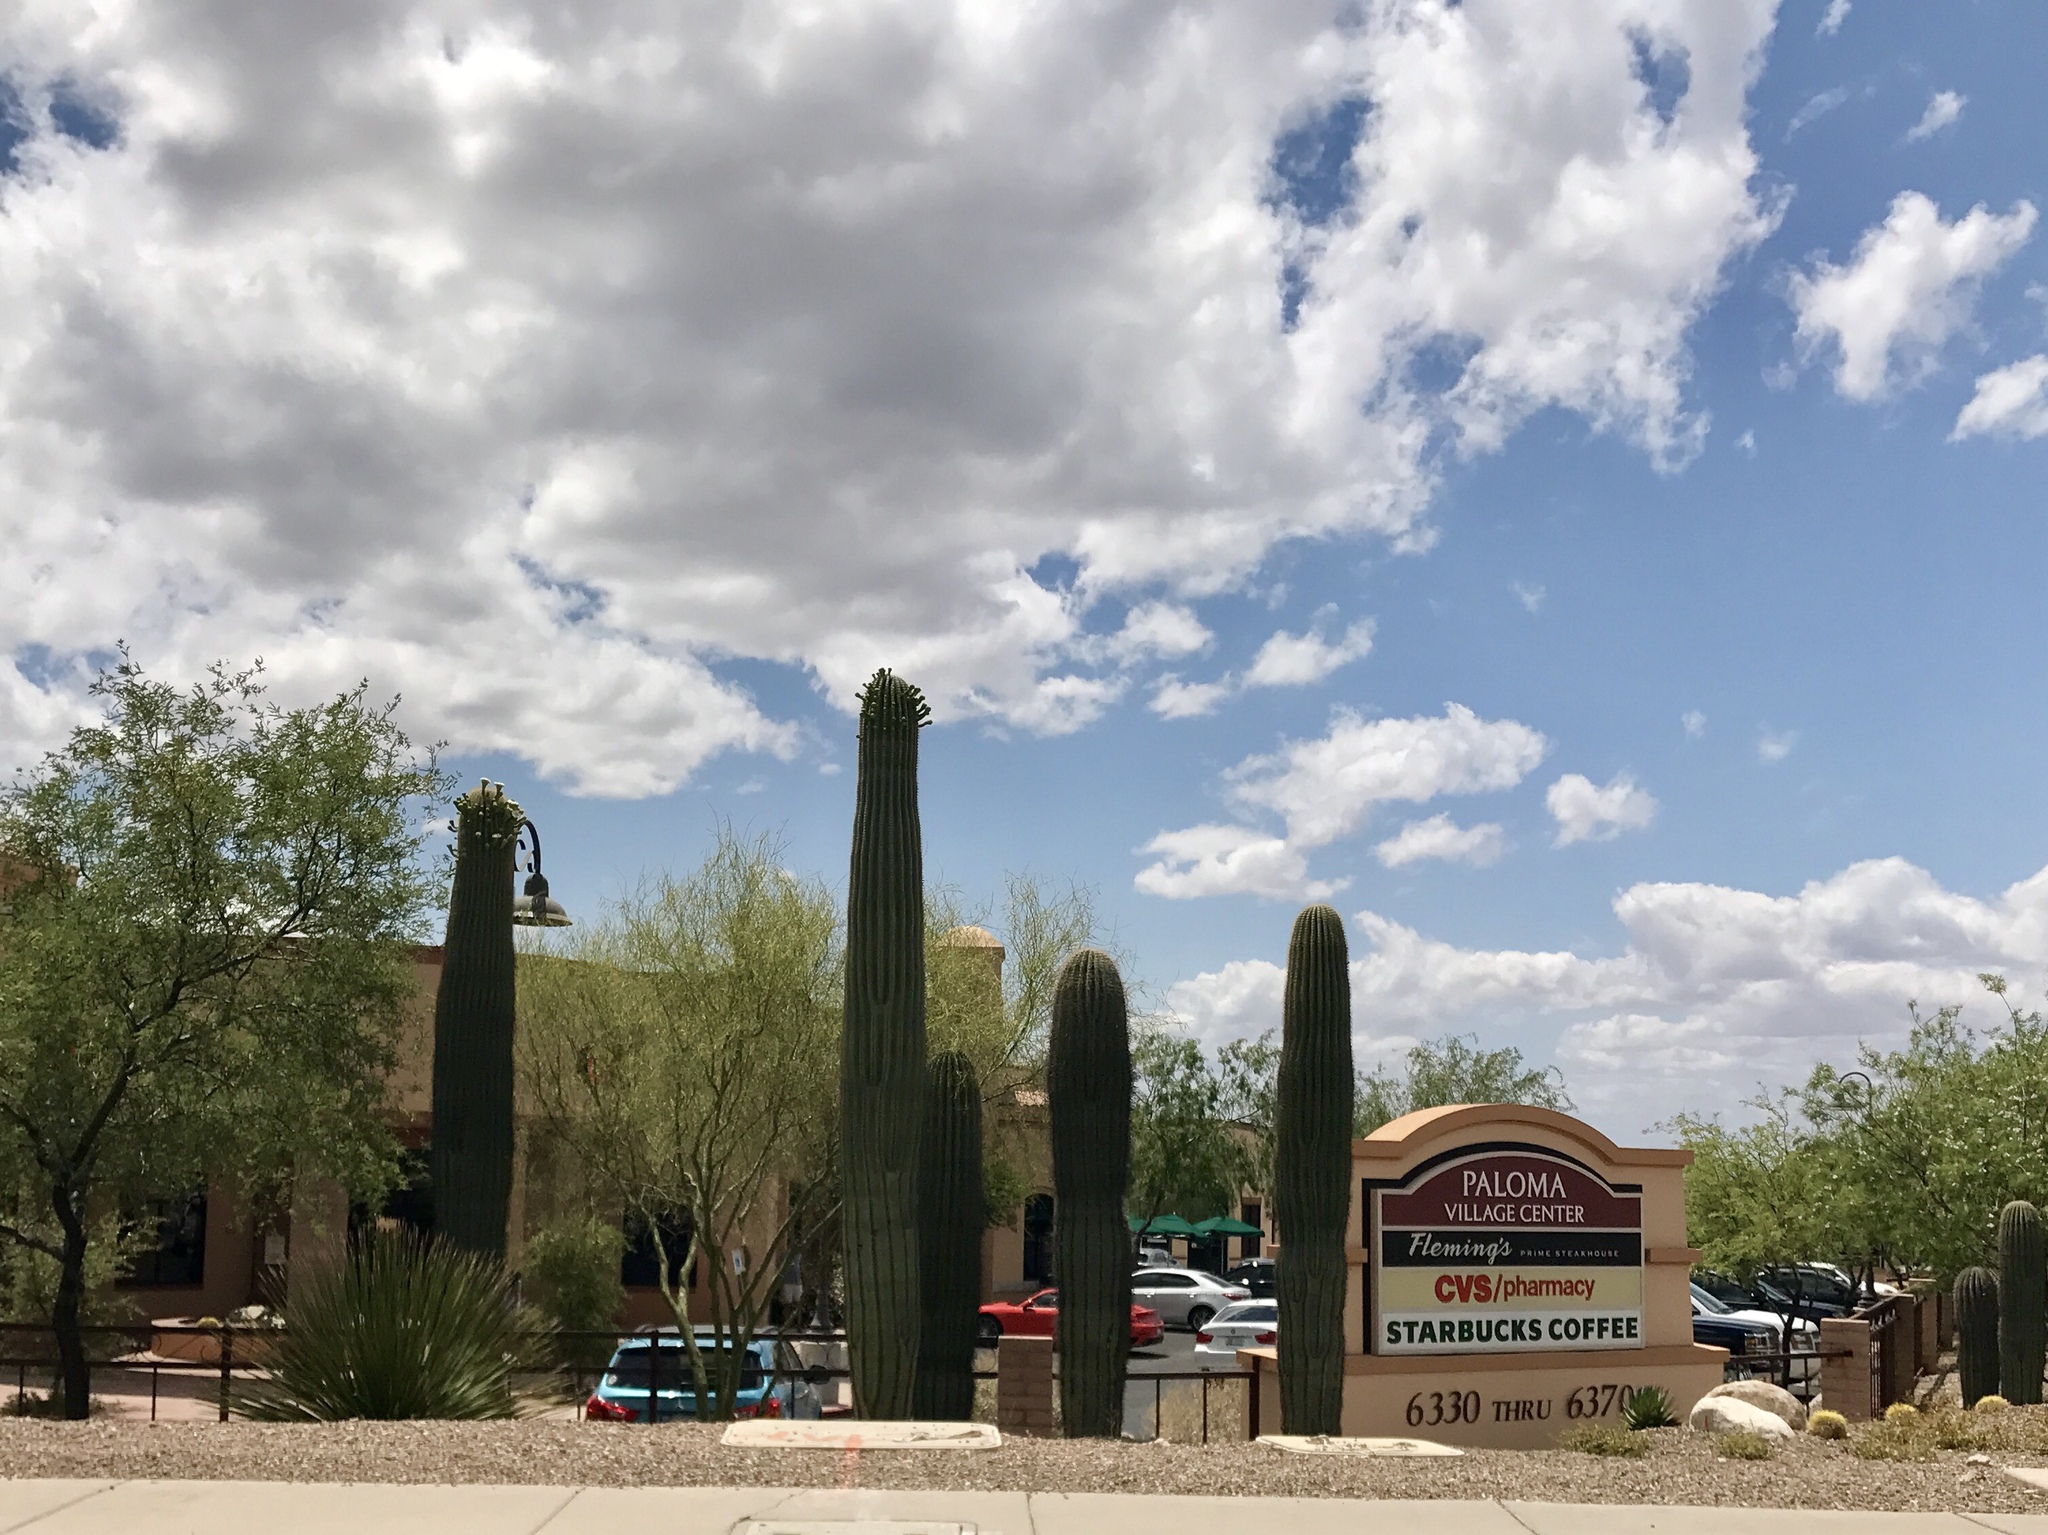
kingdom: Plantae
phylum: Tracheophyta
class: Magnoliopsida
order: Caryophyllales
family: Cactaceae
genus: Carnegiea
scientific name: Carnegiea gigantea
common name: Saguaro
